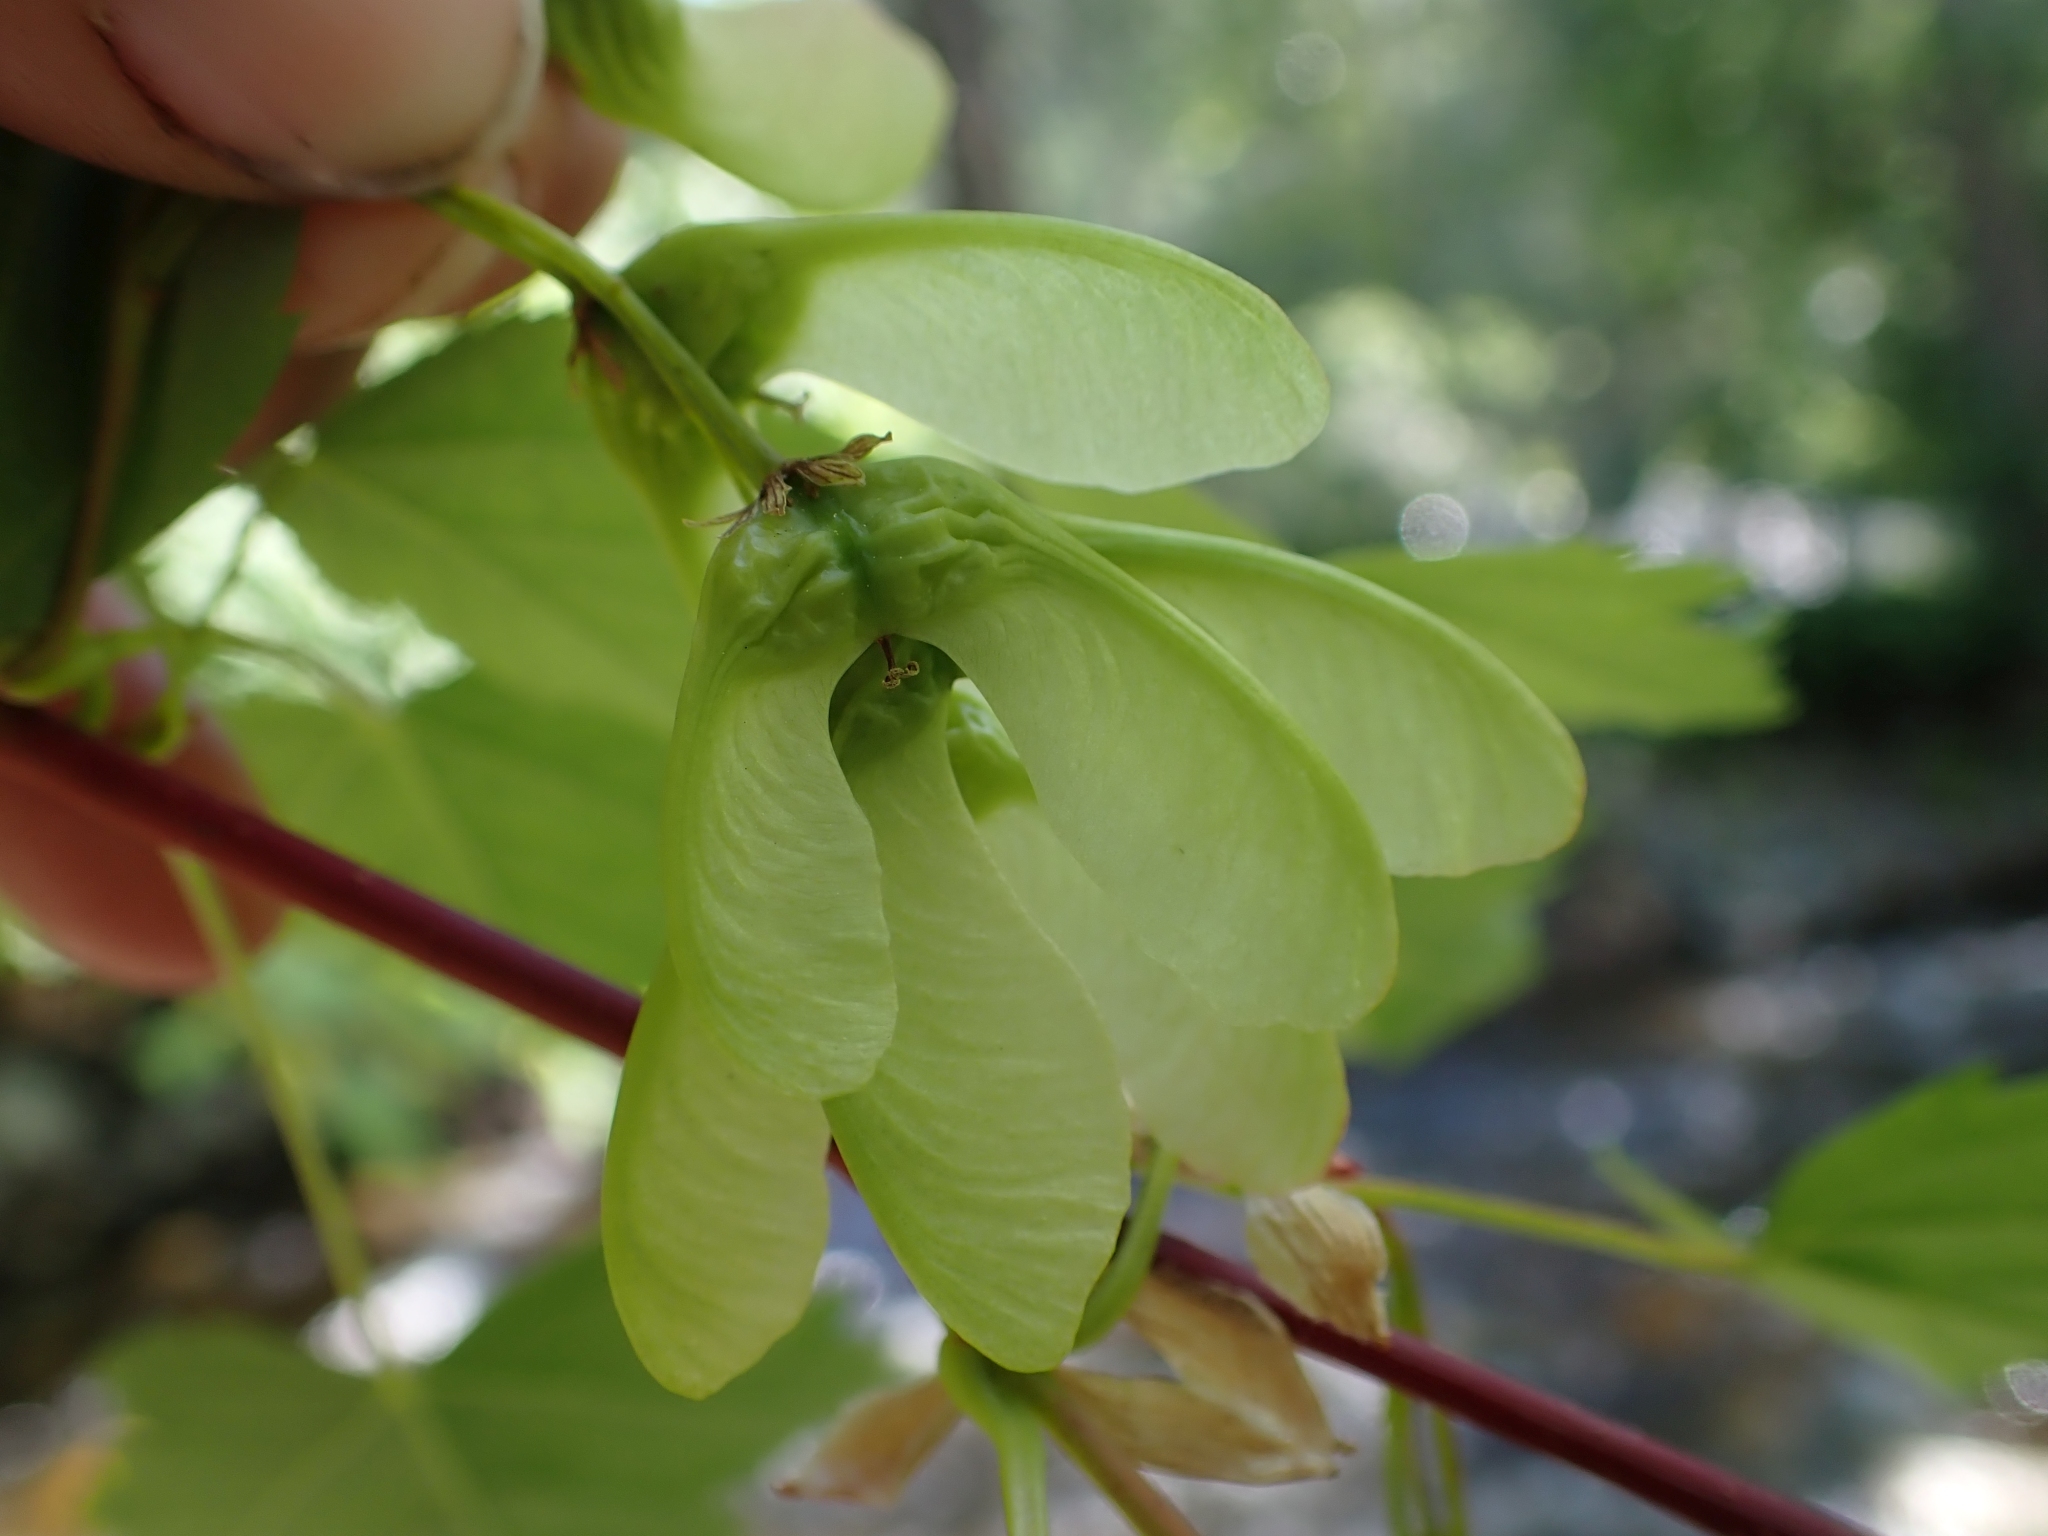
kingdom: Plantae
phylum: Tracheophyta
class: Magnoliopsida
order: Sapindales
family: Sapindaceae
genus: Acer
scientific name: Acer glabrum
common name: Rocky mountain maple
